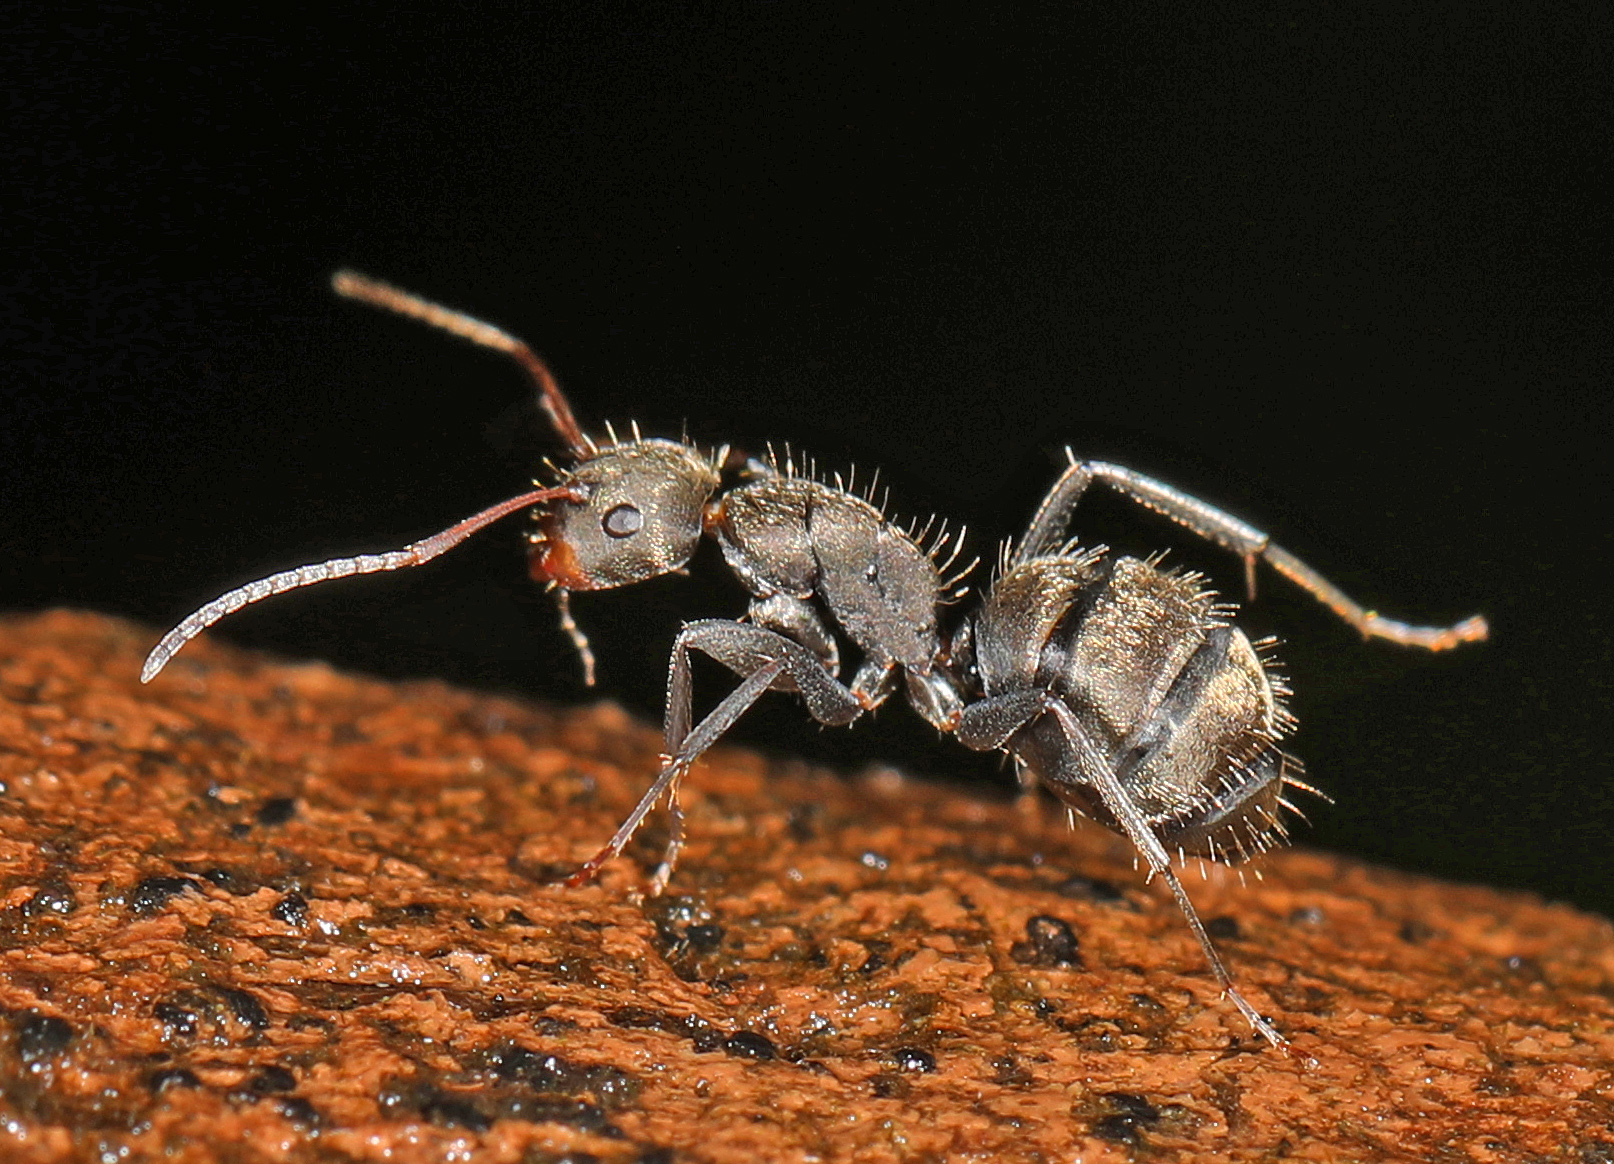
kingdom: Animalia
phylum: Arthropoda
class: Insecta
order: Hymenoptera
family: Formicidae
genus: Camponotus
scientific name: Camponotus novogranadensis
